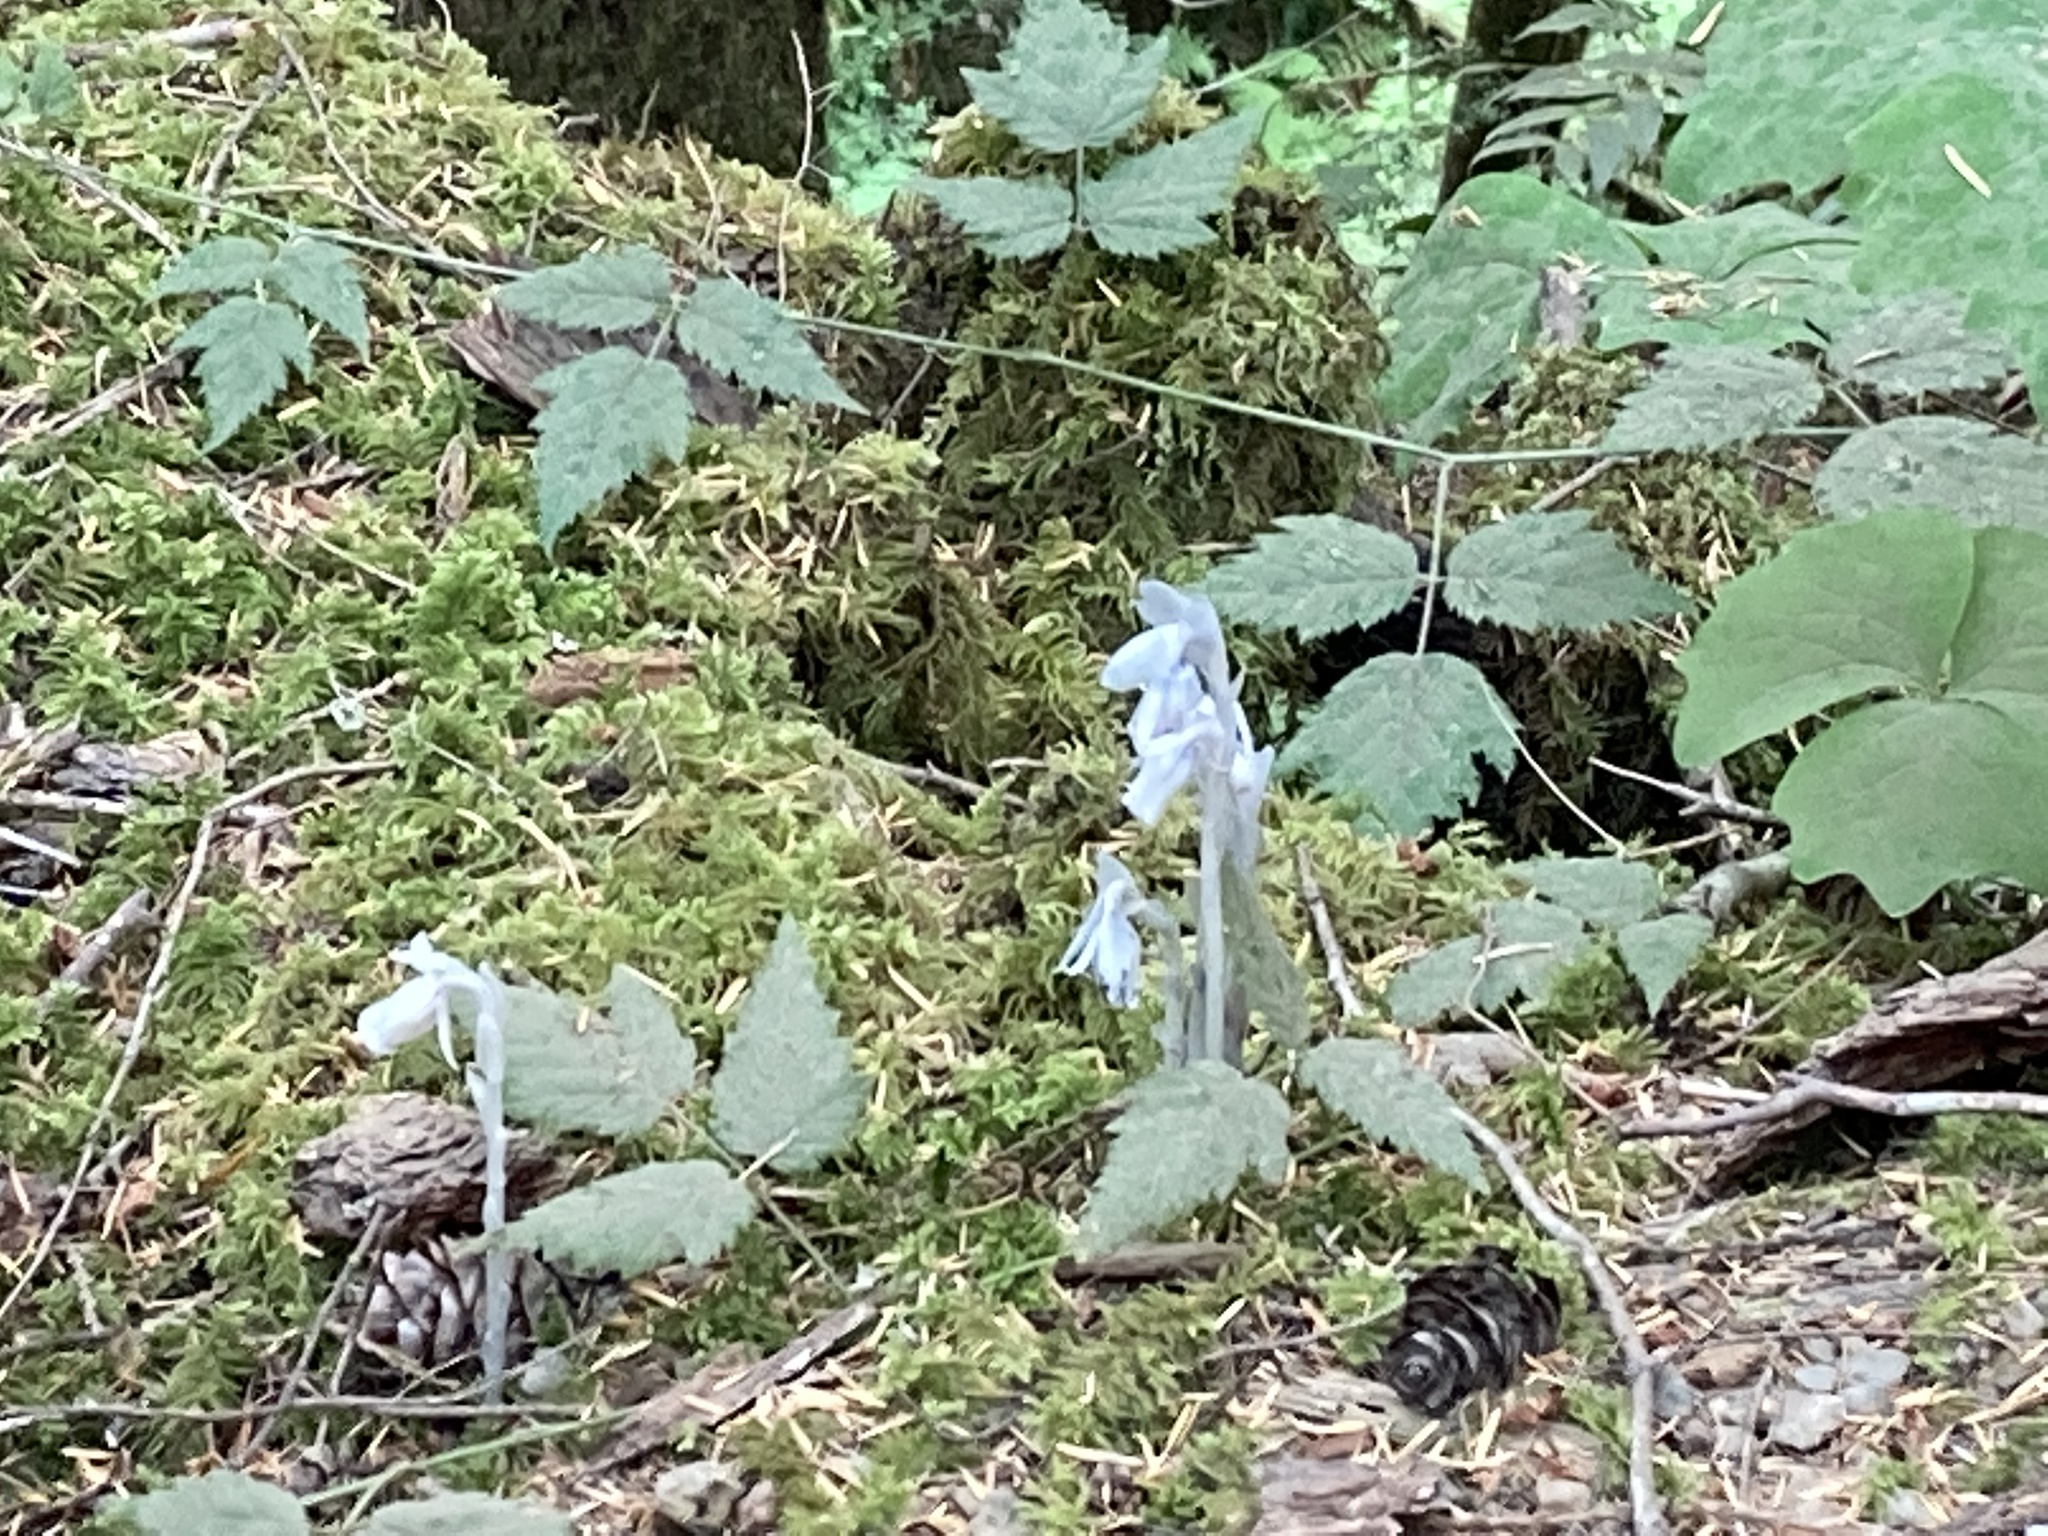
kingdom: Plantae
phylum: Tracheophyta
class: Magnoliopsida
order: Ericales
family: Ericaceae
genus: Monotropa
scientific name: Monotropa uniflora
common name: Convulsion root
